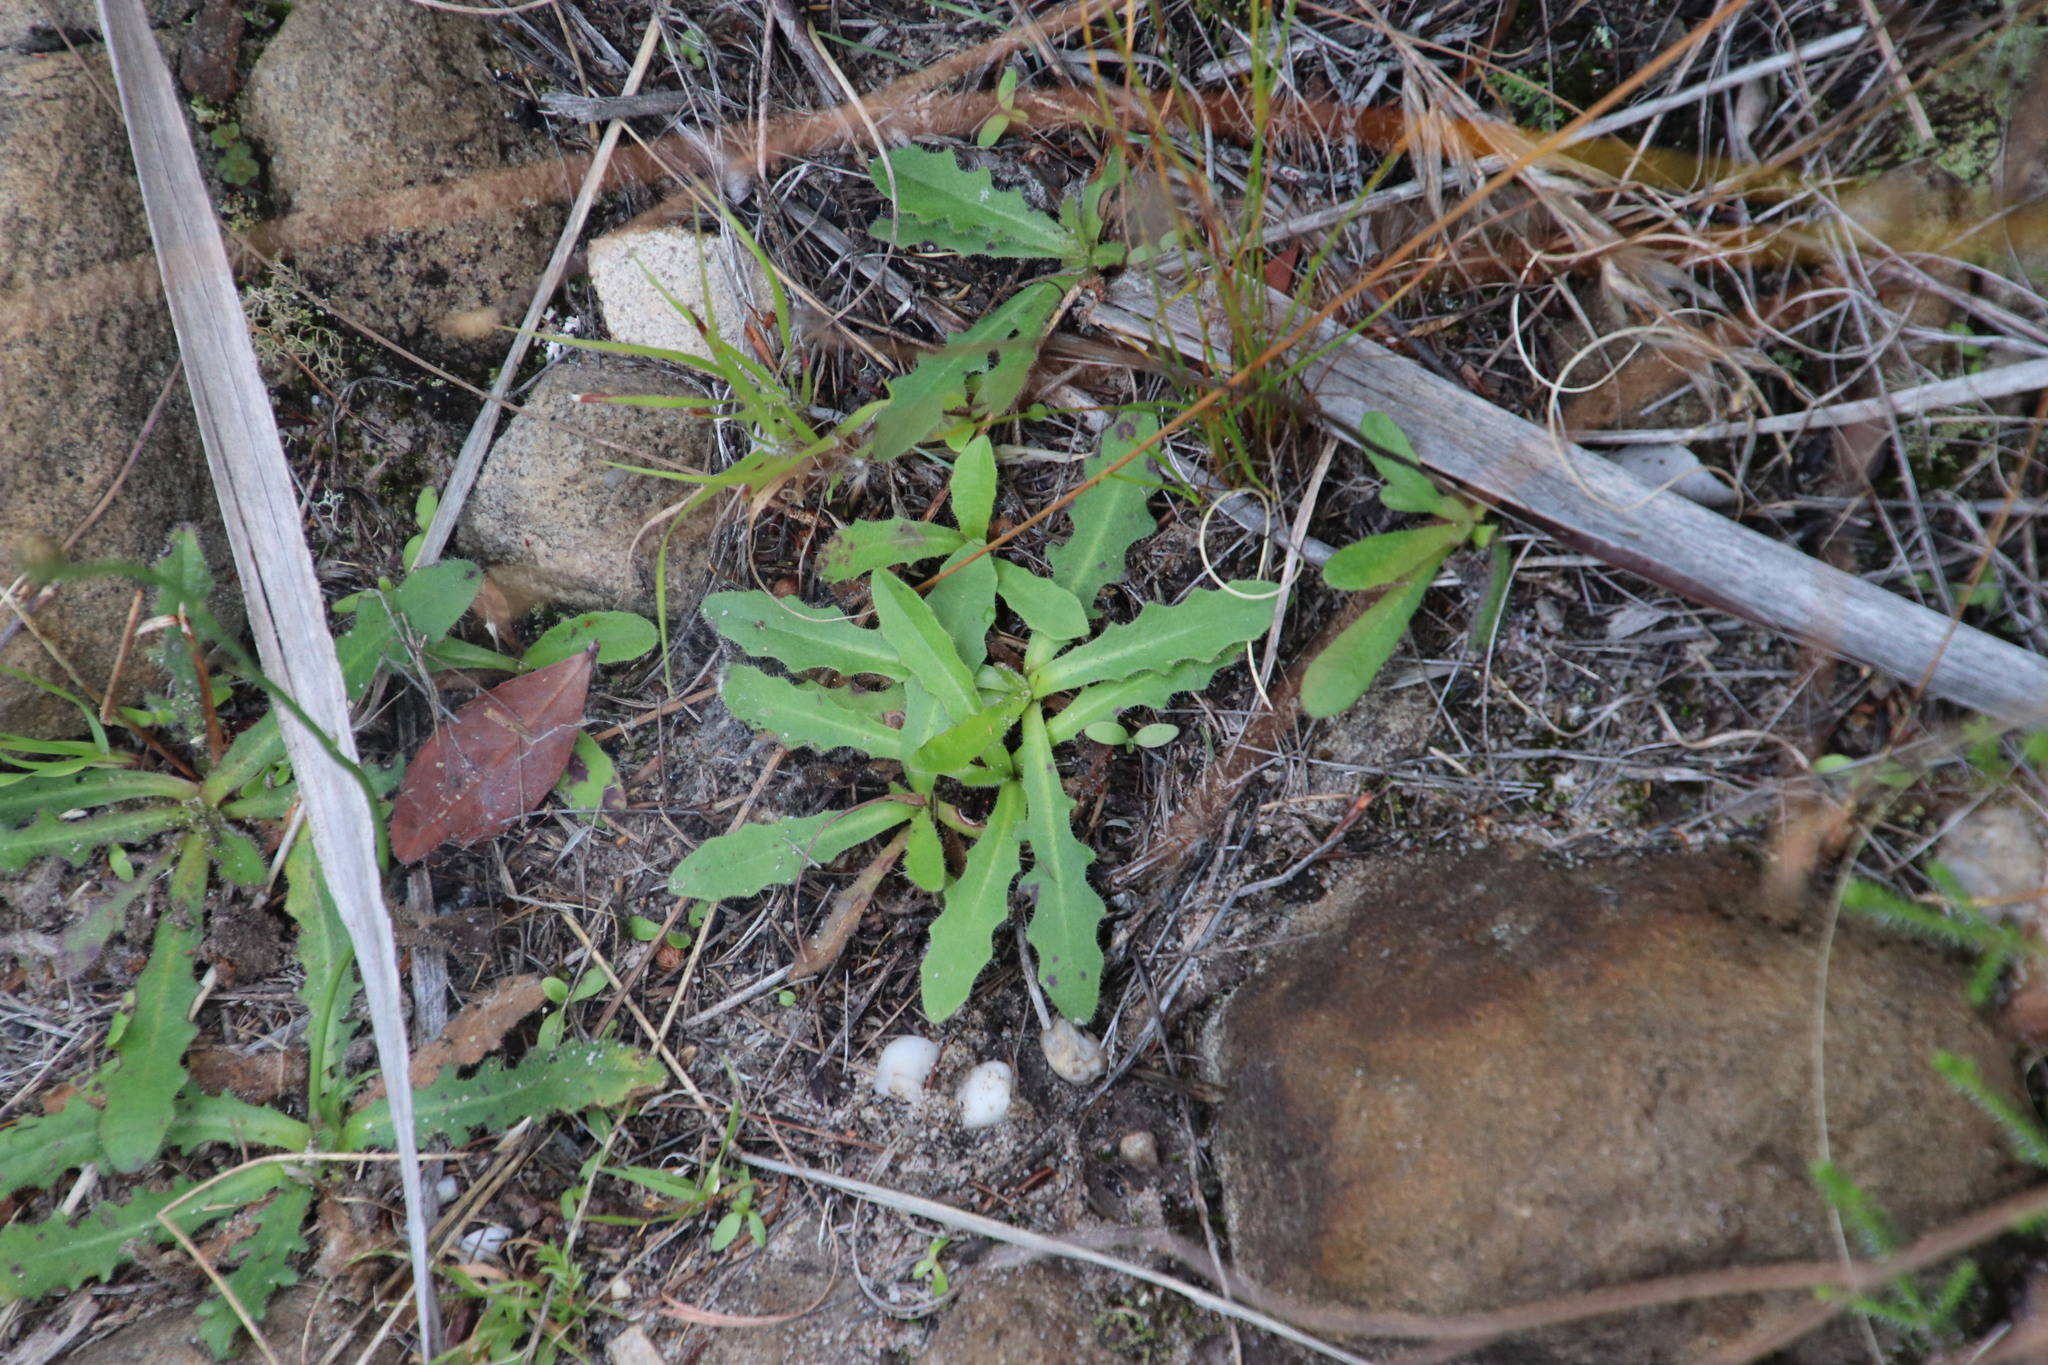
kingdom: Plantae
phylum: Tracheophyta
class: Magnoliopsida
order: Asterales
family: Asteraceae
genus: Hypochaeris
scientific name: Hypochaeris radicata
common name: Flatweed
